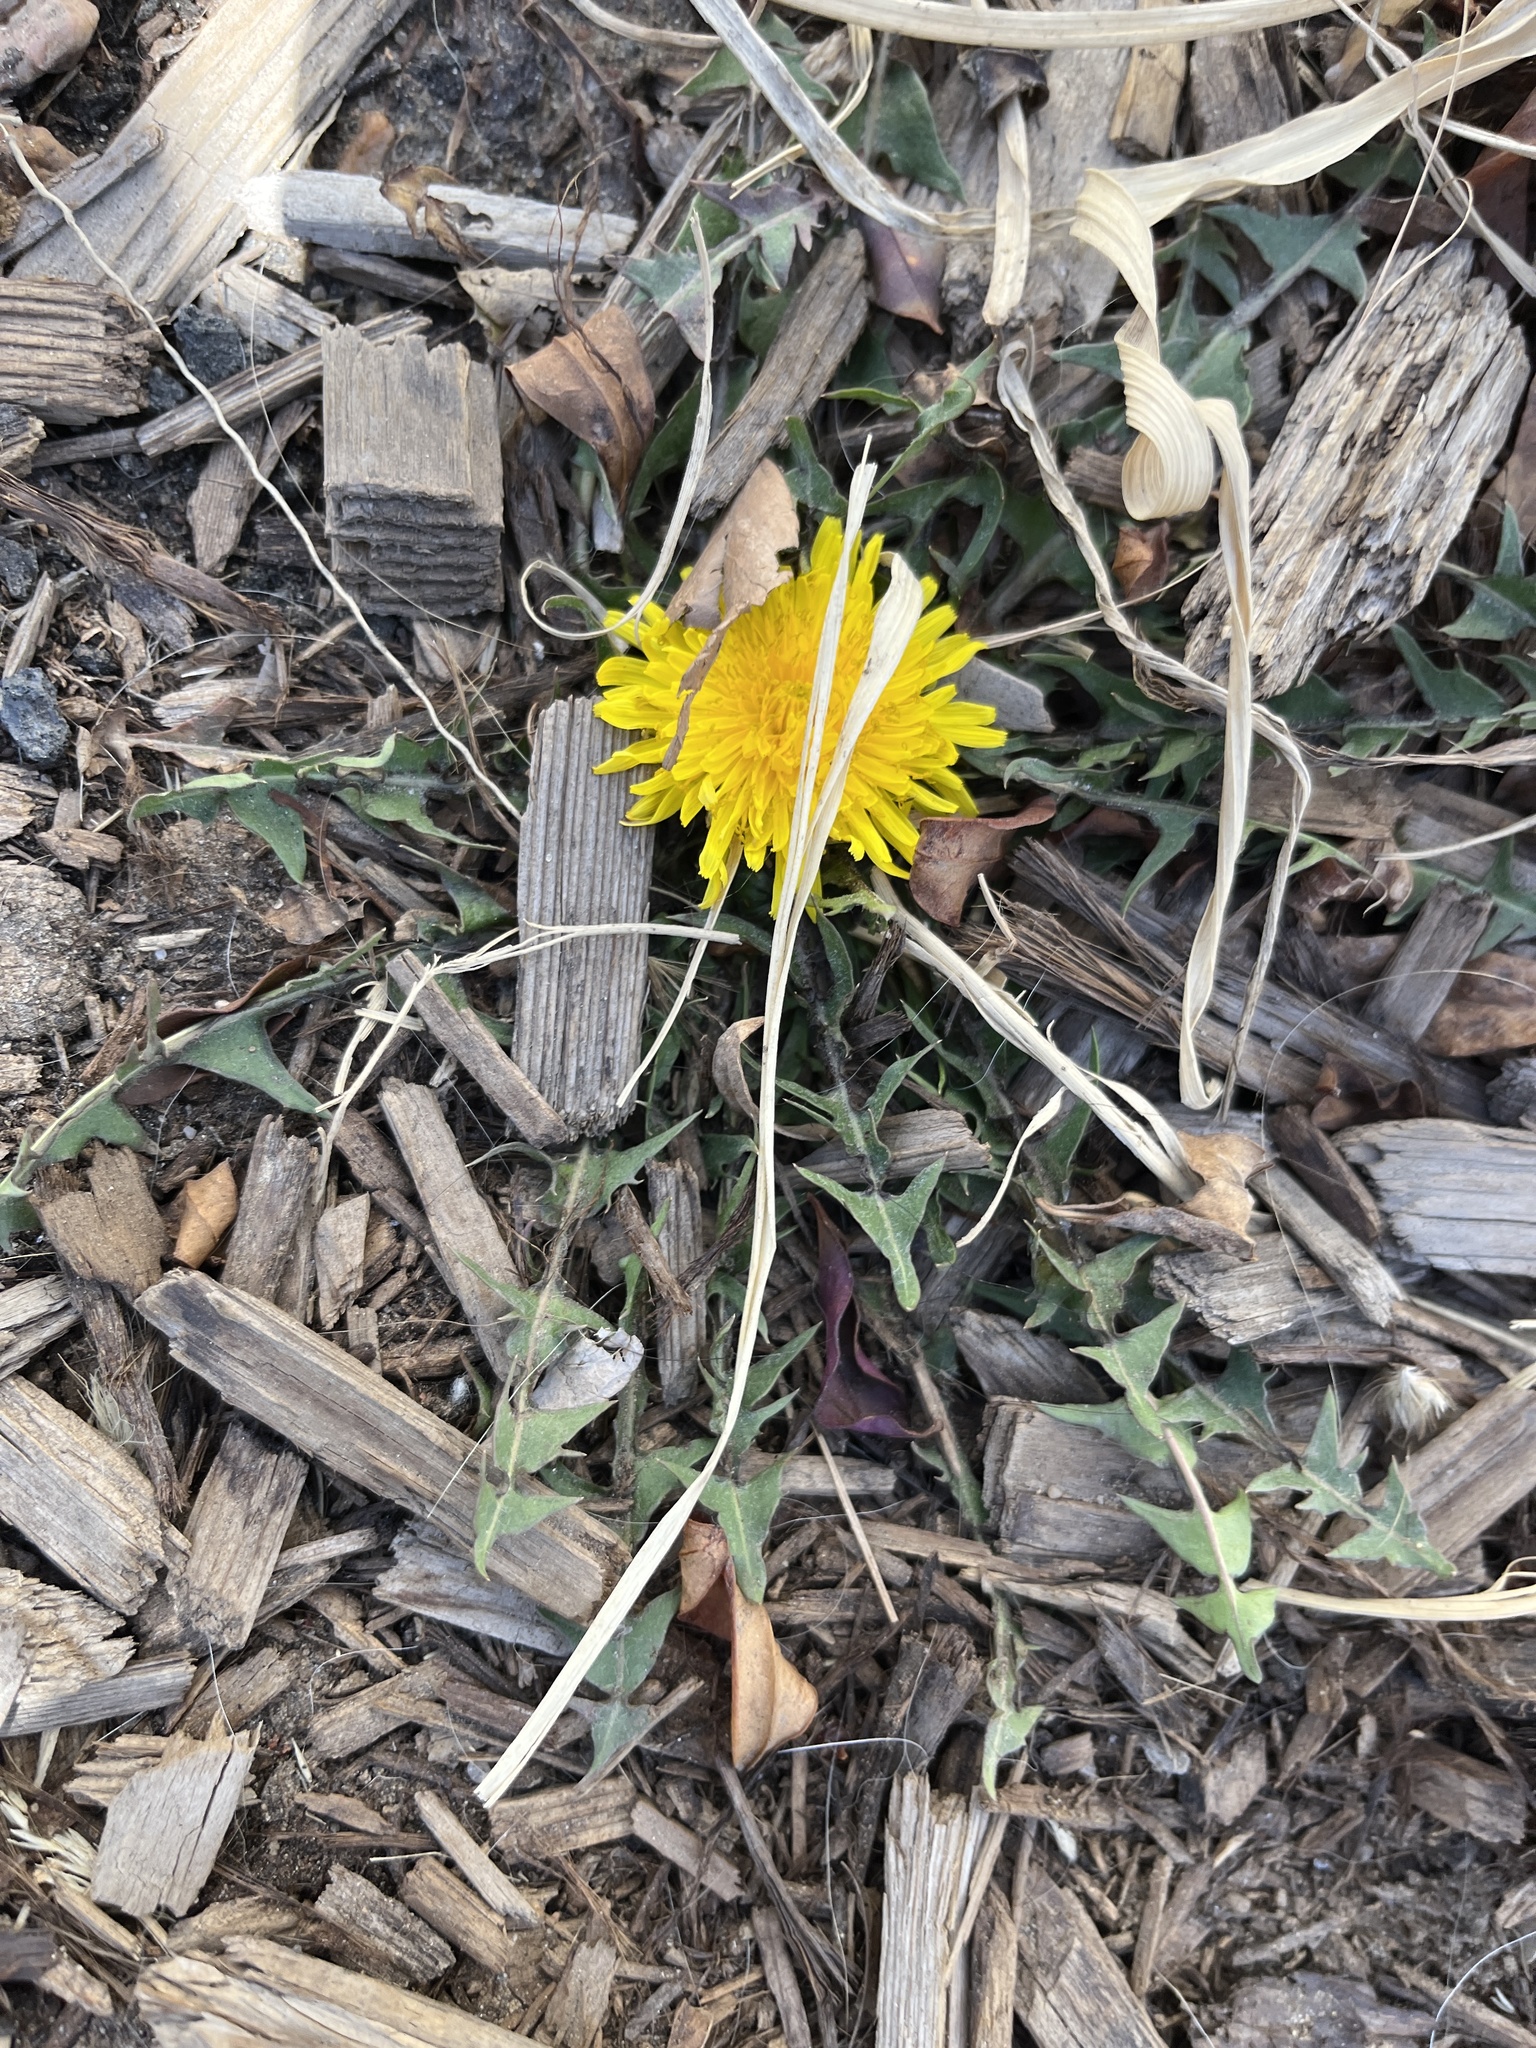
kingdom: Plantae
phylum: Tracheophyta
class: Magnoliopsida
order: Asterales
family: Asteraceae
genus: Taraxacum
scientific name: Taraxacum officinale
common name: Common dandelion
